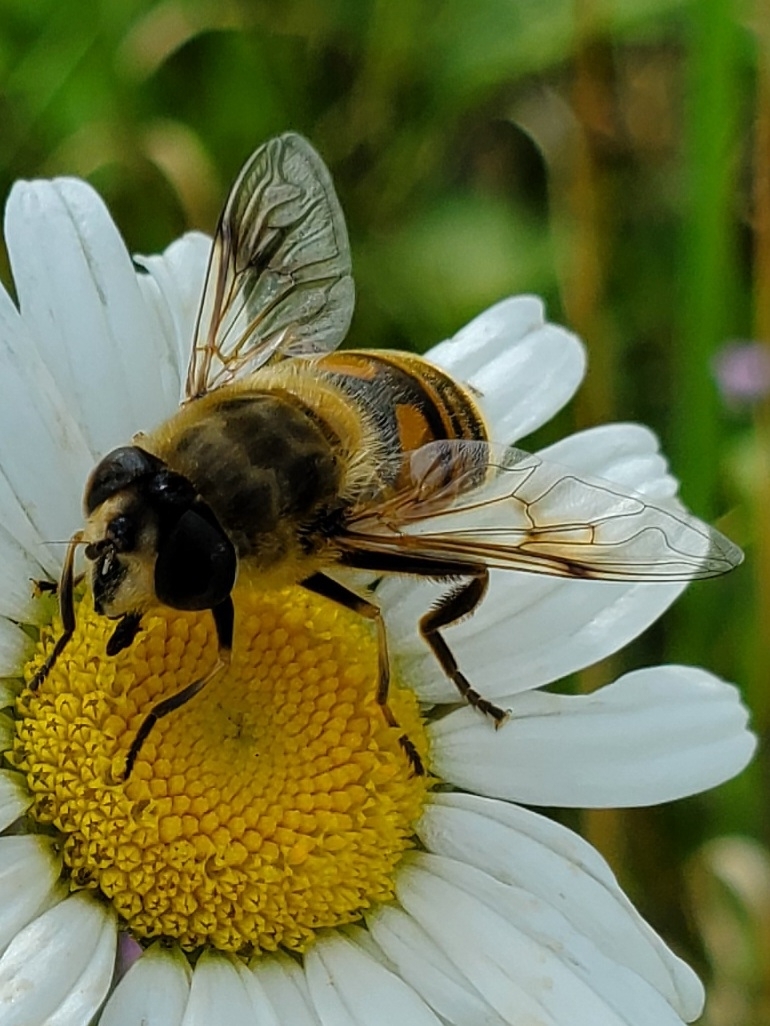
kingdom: Animalia
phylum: Arthropoda
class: Insecta
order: Diptera
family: Syrphidae
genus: Eristalis
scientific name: Eristalis tenax
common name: Drone fly
